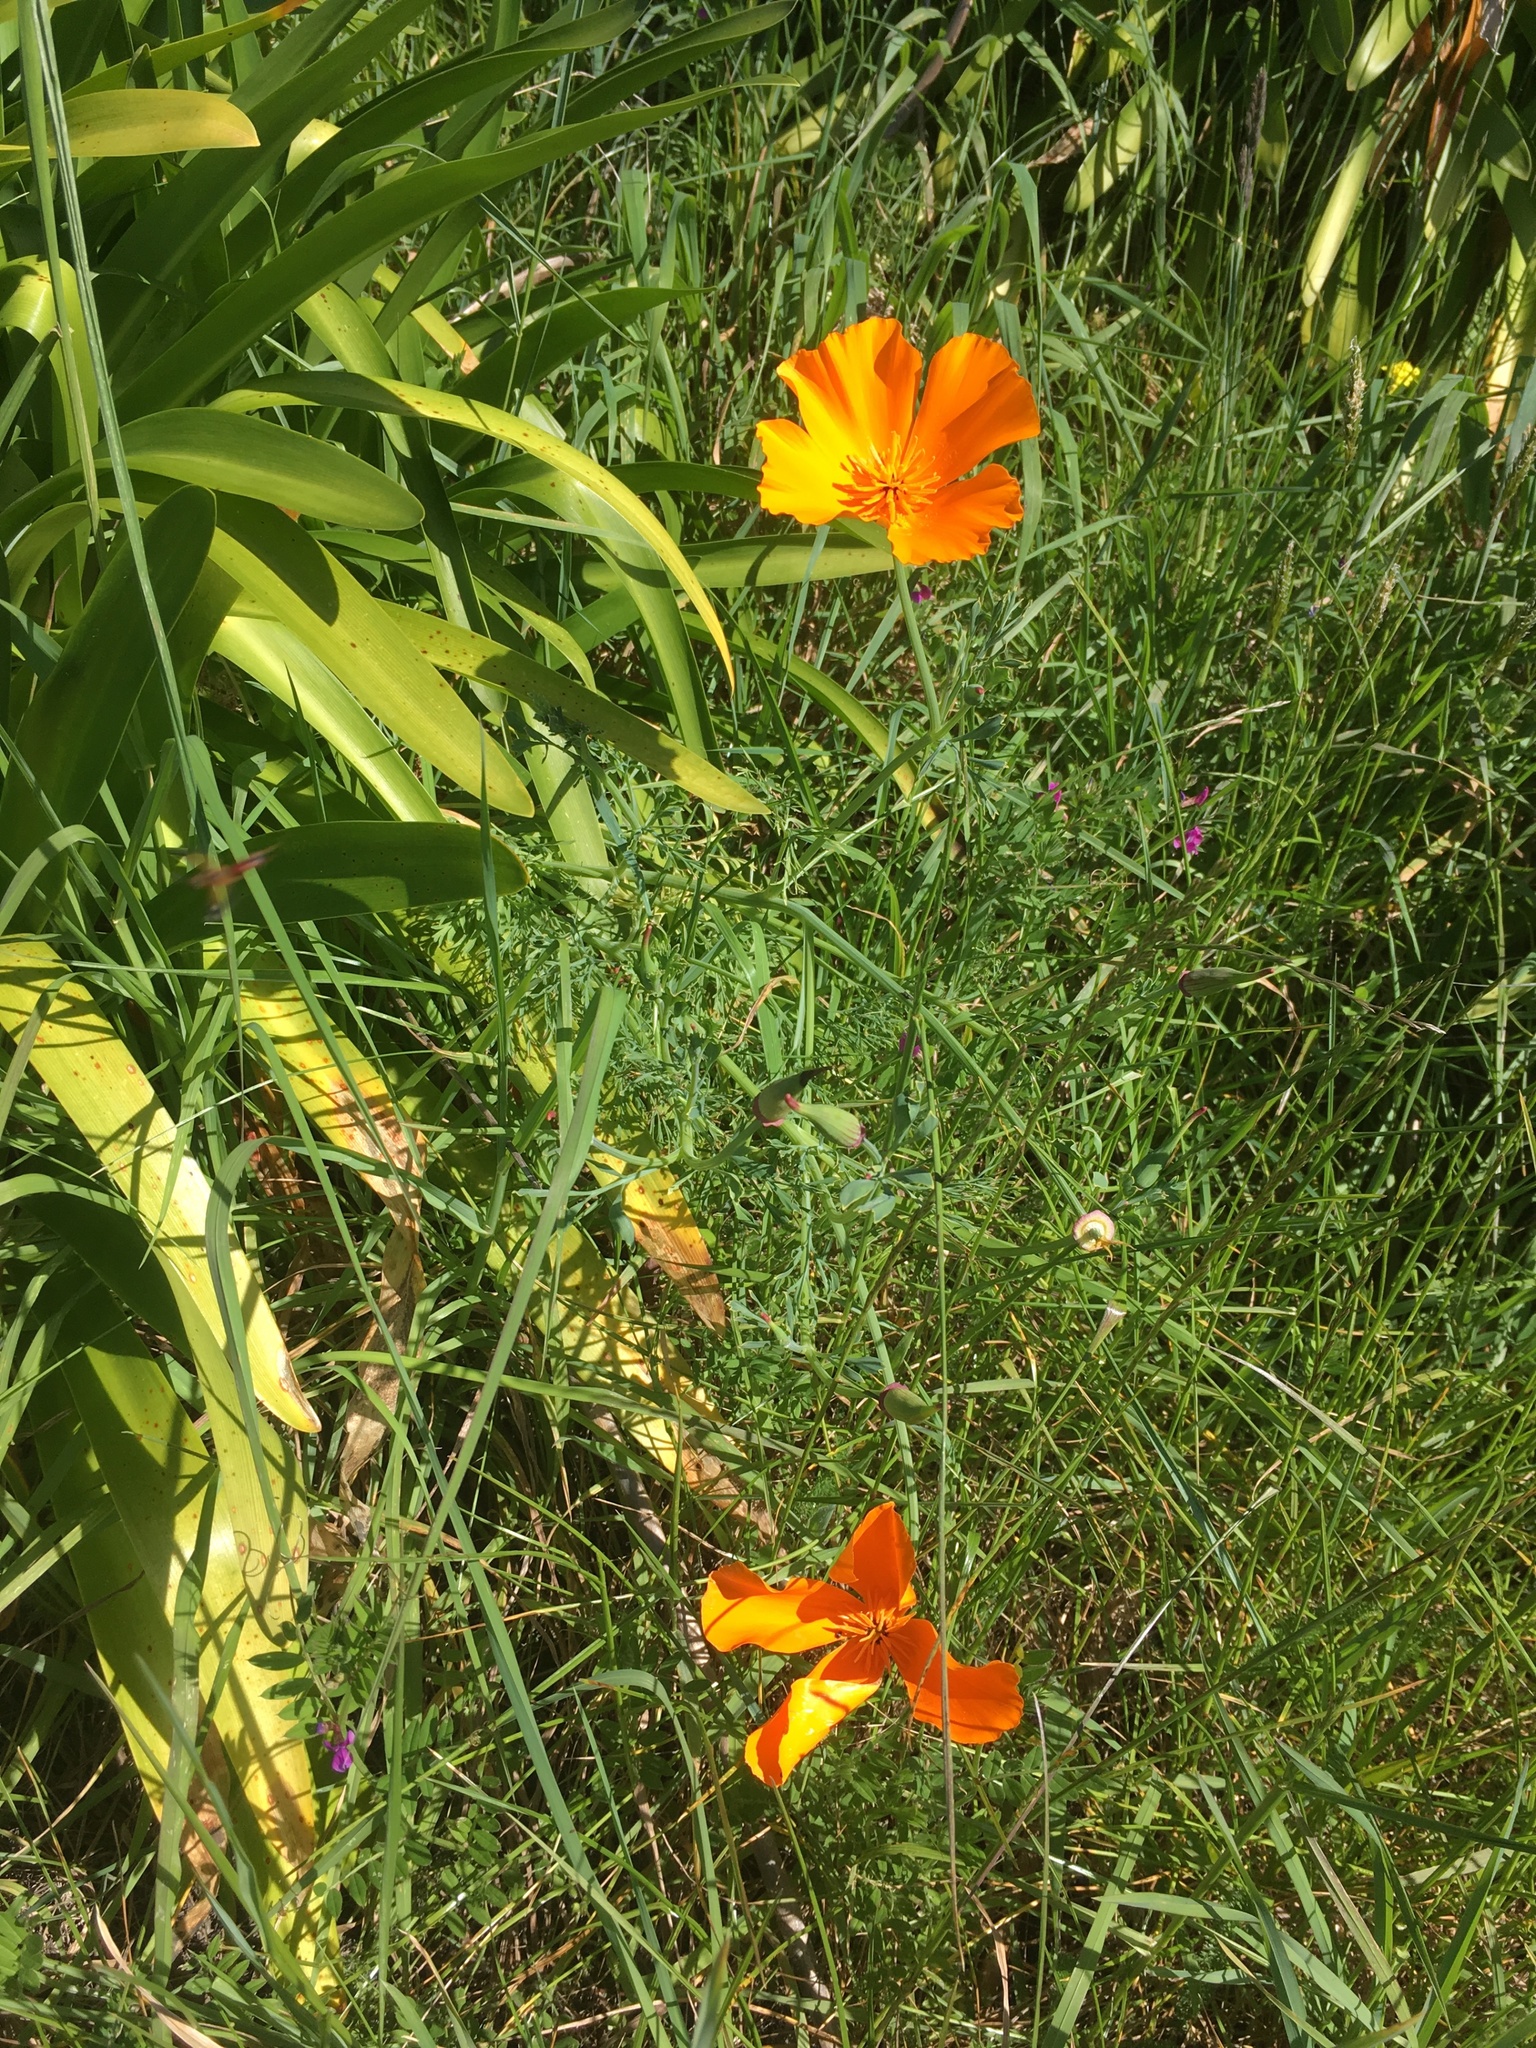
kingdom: Plantae
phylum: Tracheophyta
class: Magnoliopsida
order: Ranunculales
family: Papaveraceae
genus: Eschscholzia
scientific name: Eschscholzia californica
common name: California poppy
